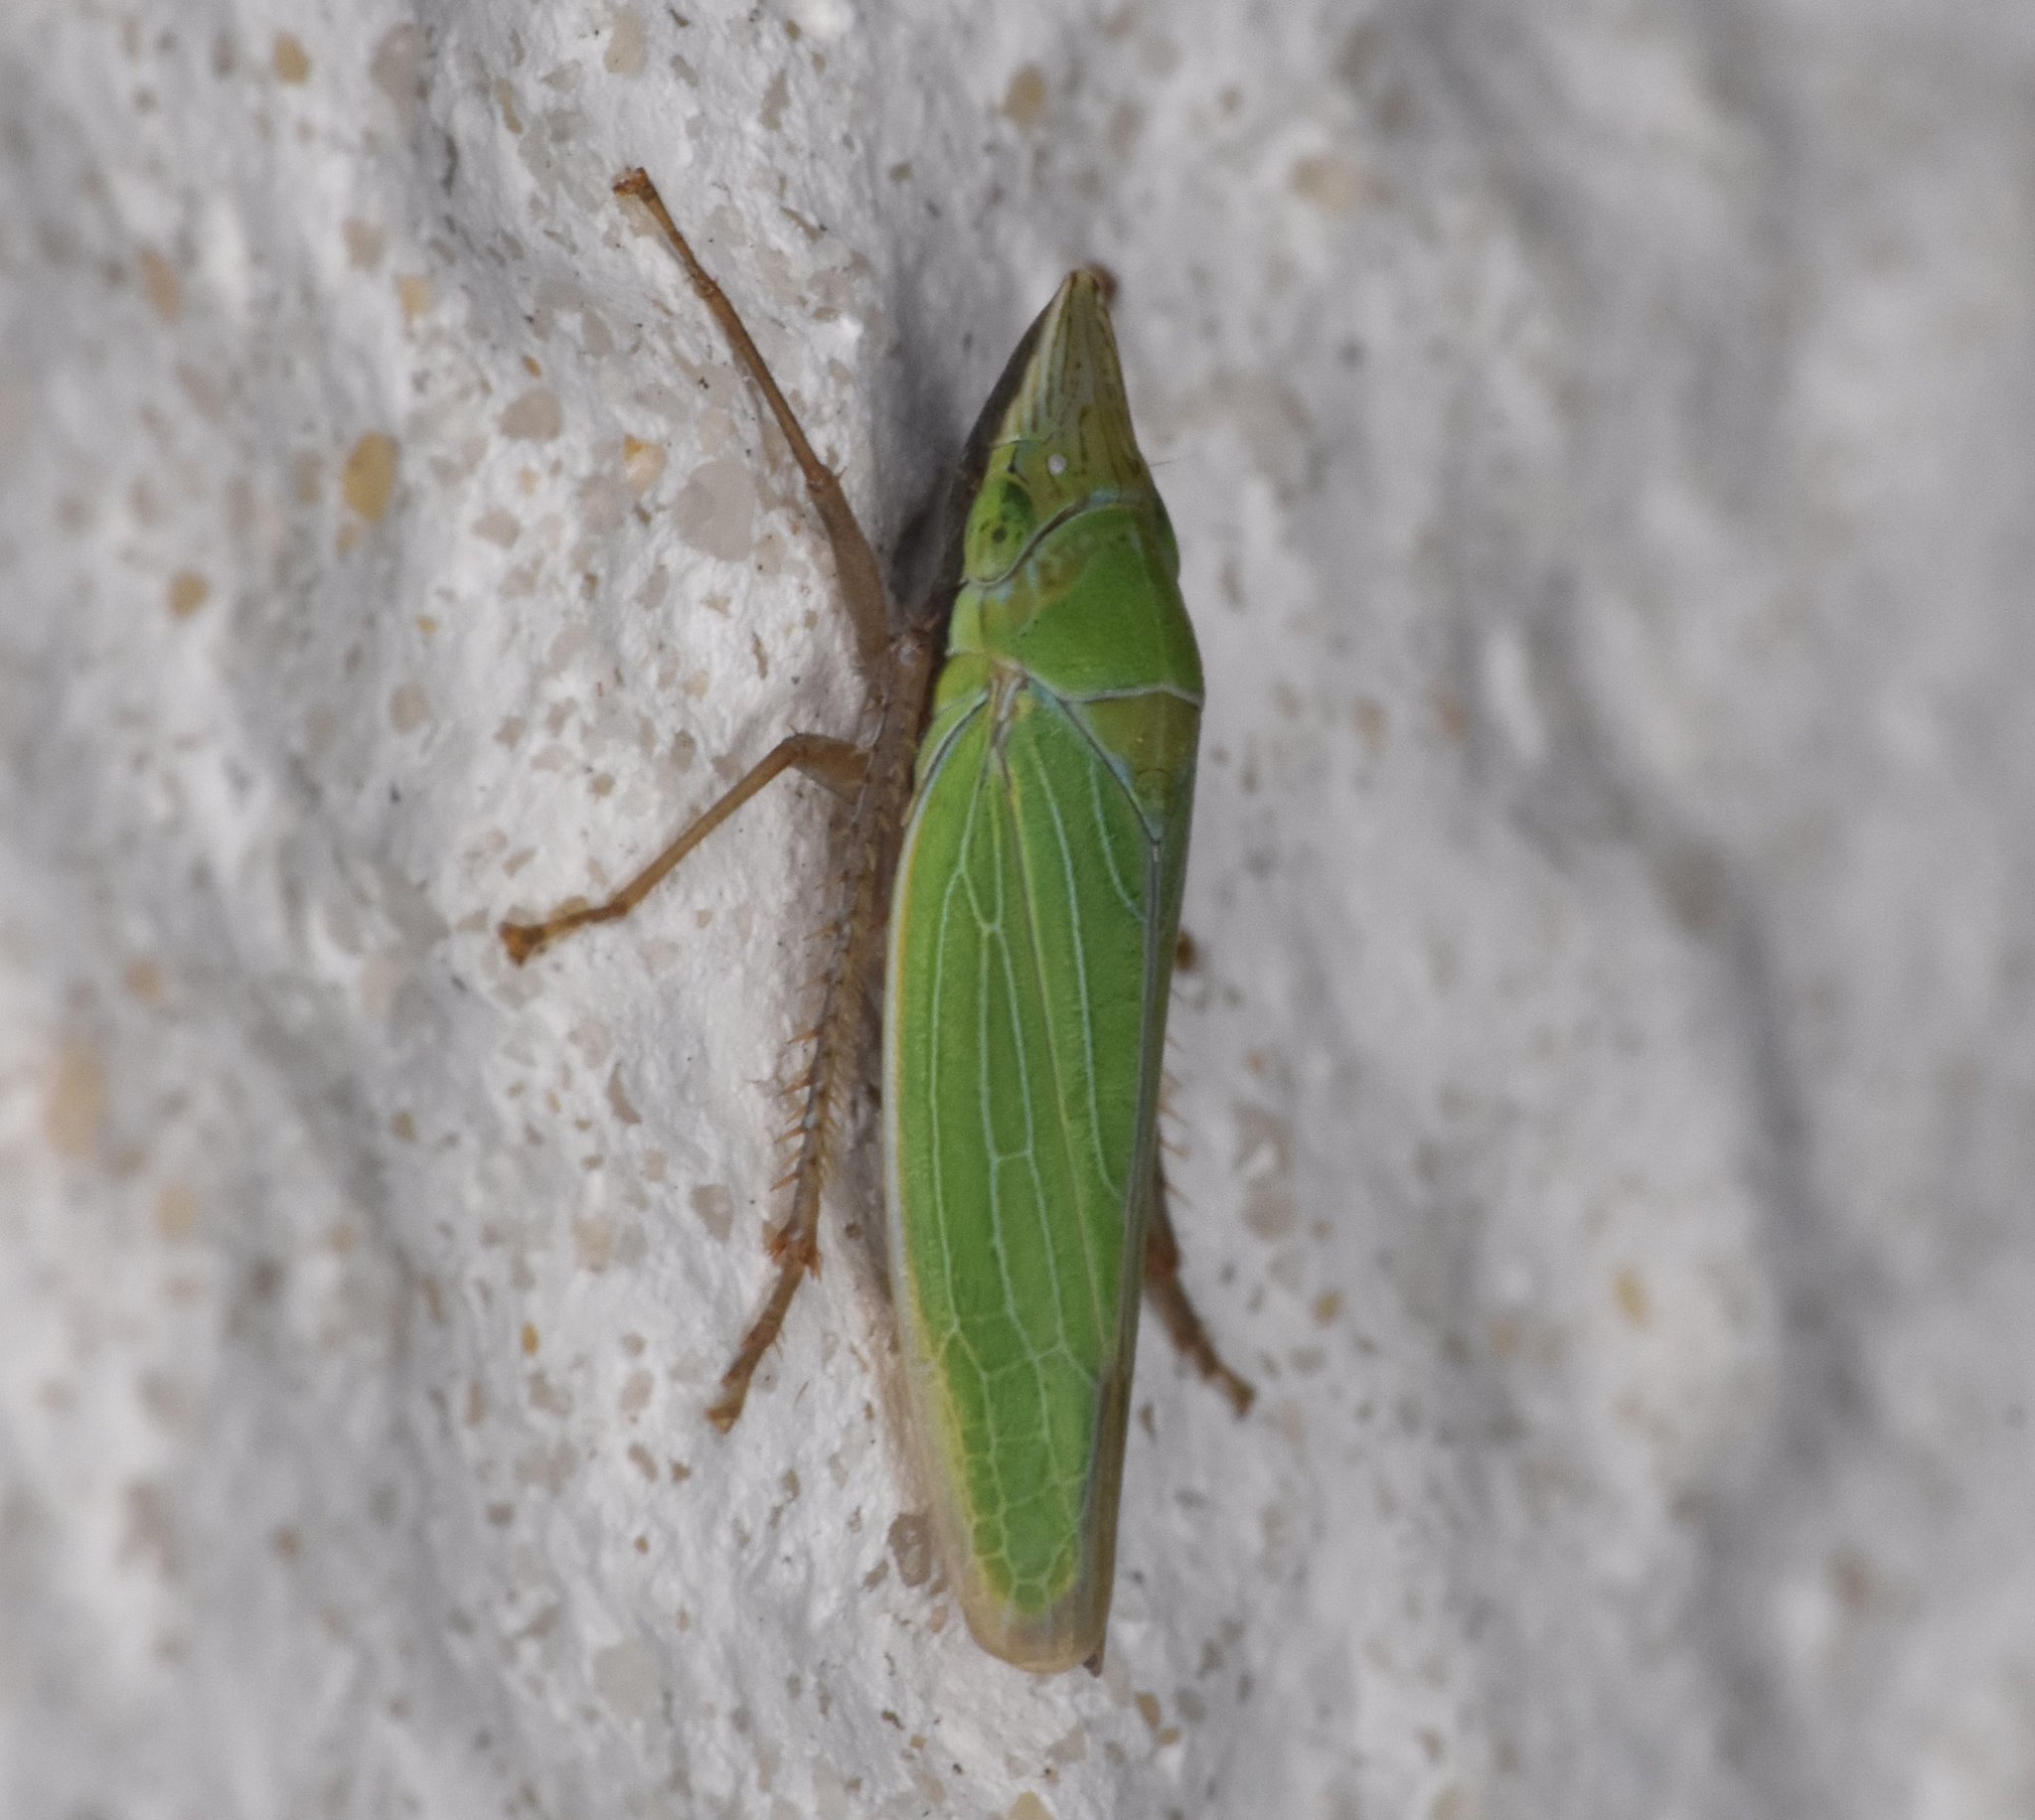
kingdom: Animalia
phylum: Arthropoda
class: Insecta
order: Hemiptera
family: Cicadellidae
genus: Draeculacephala
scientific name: Draeculacephala portola
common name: Leafhopper
